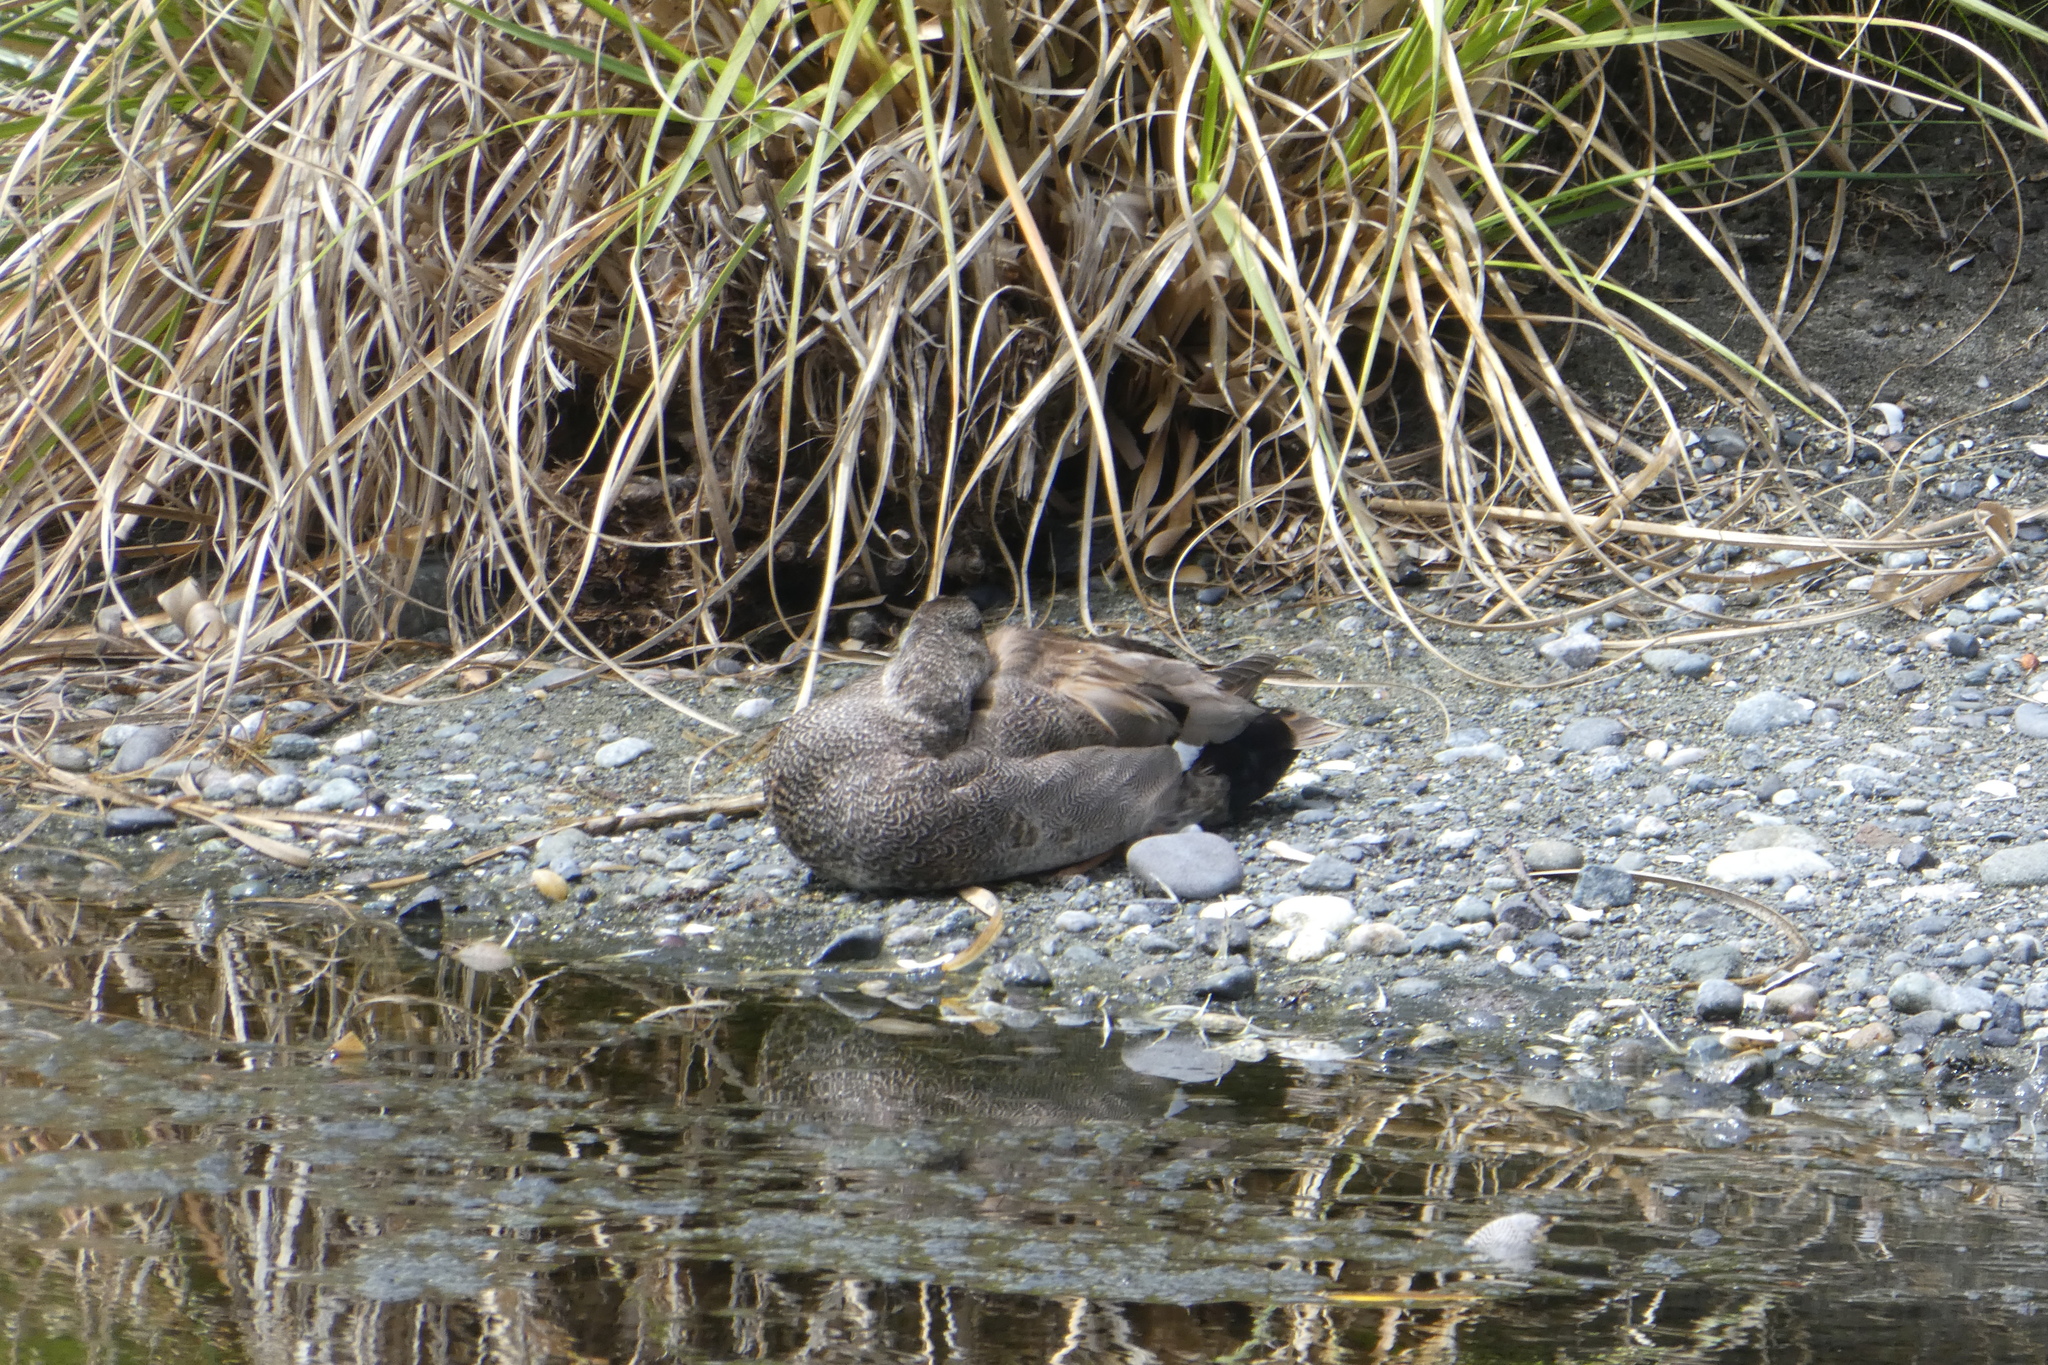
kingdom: Animalia
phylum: Chordata
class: Aves
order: Anseriformes
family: Anatidae
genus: Mareca
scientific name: Mareca strepera
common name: Gadwall
